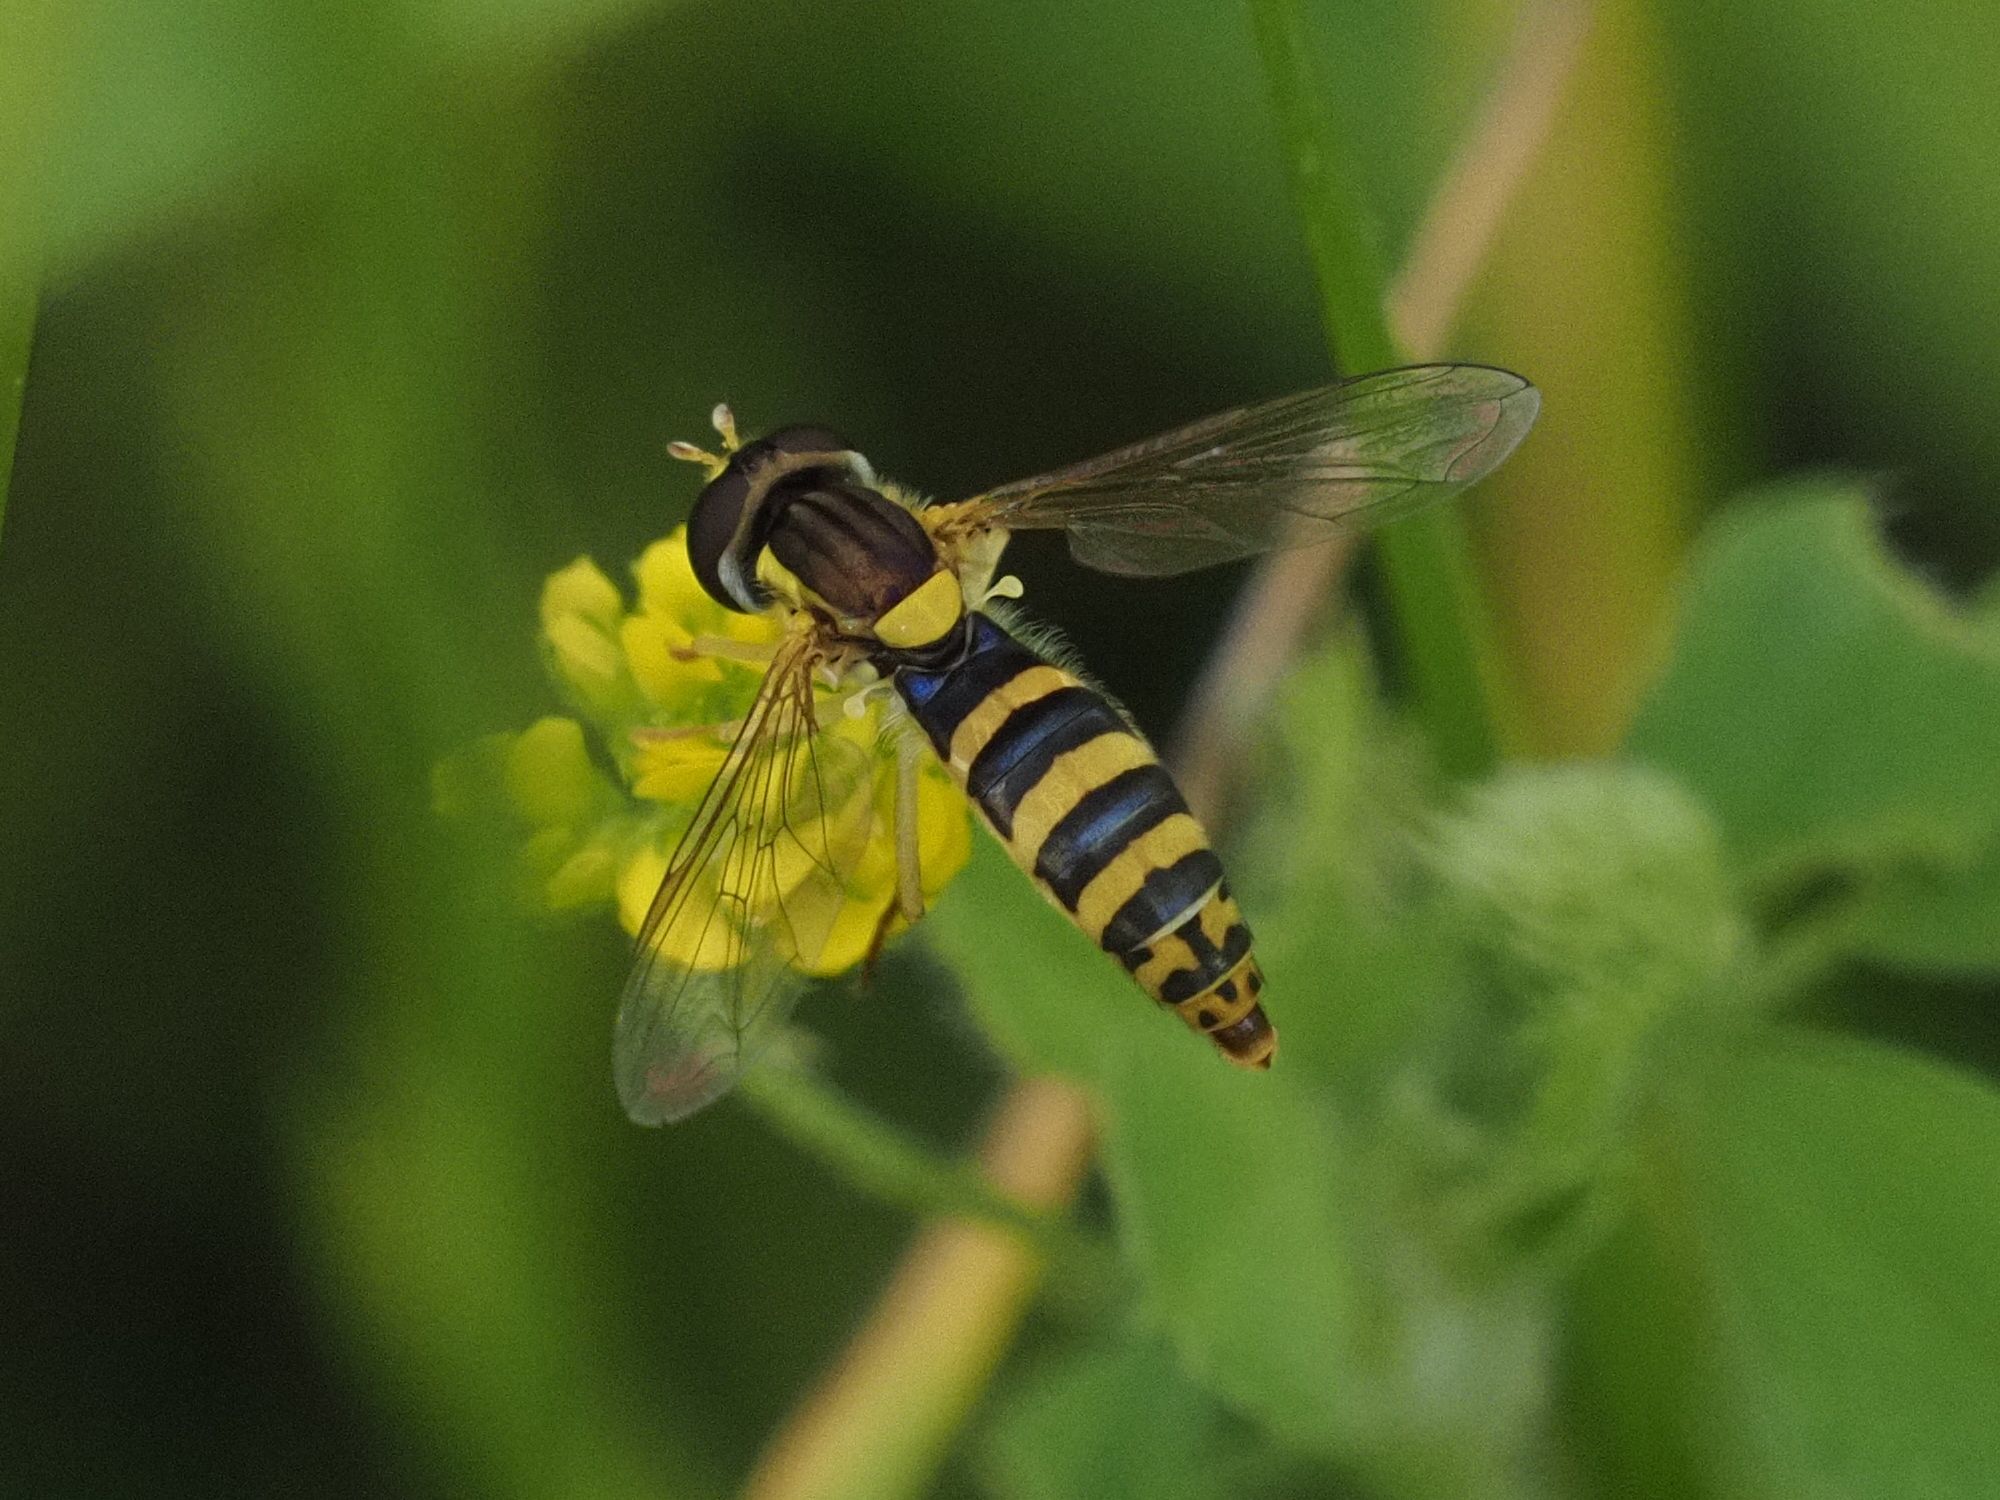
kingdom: Animalia
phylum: Arthropoda
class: Insecta
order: Diptera
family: Syrphidae
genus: Sphaerophoria
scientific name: Sphaerophoria
